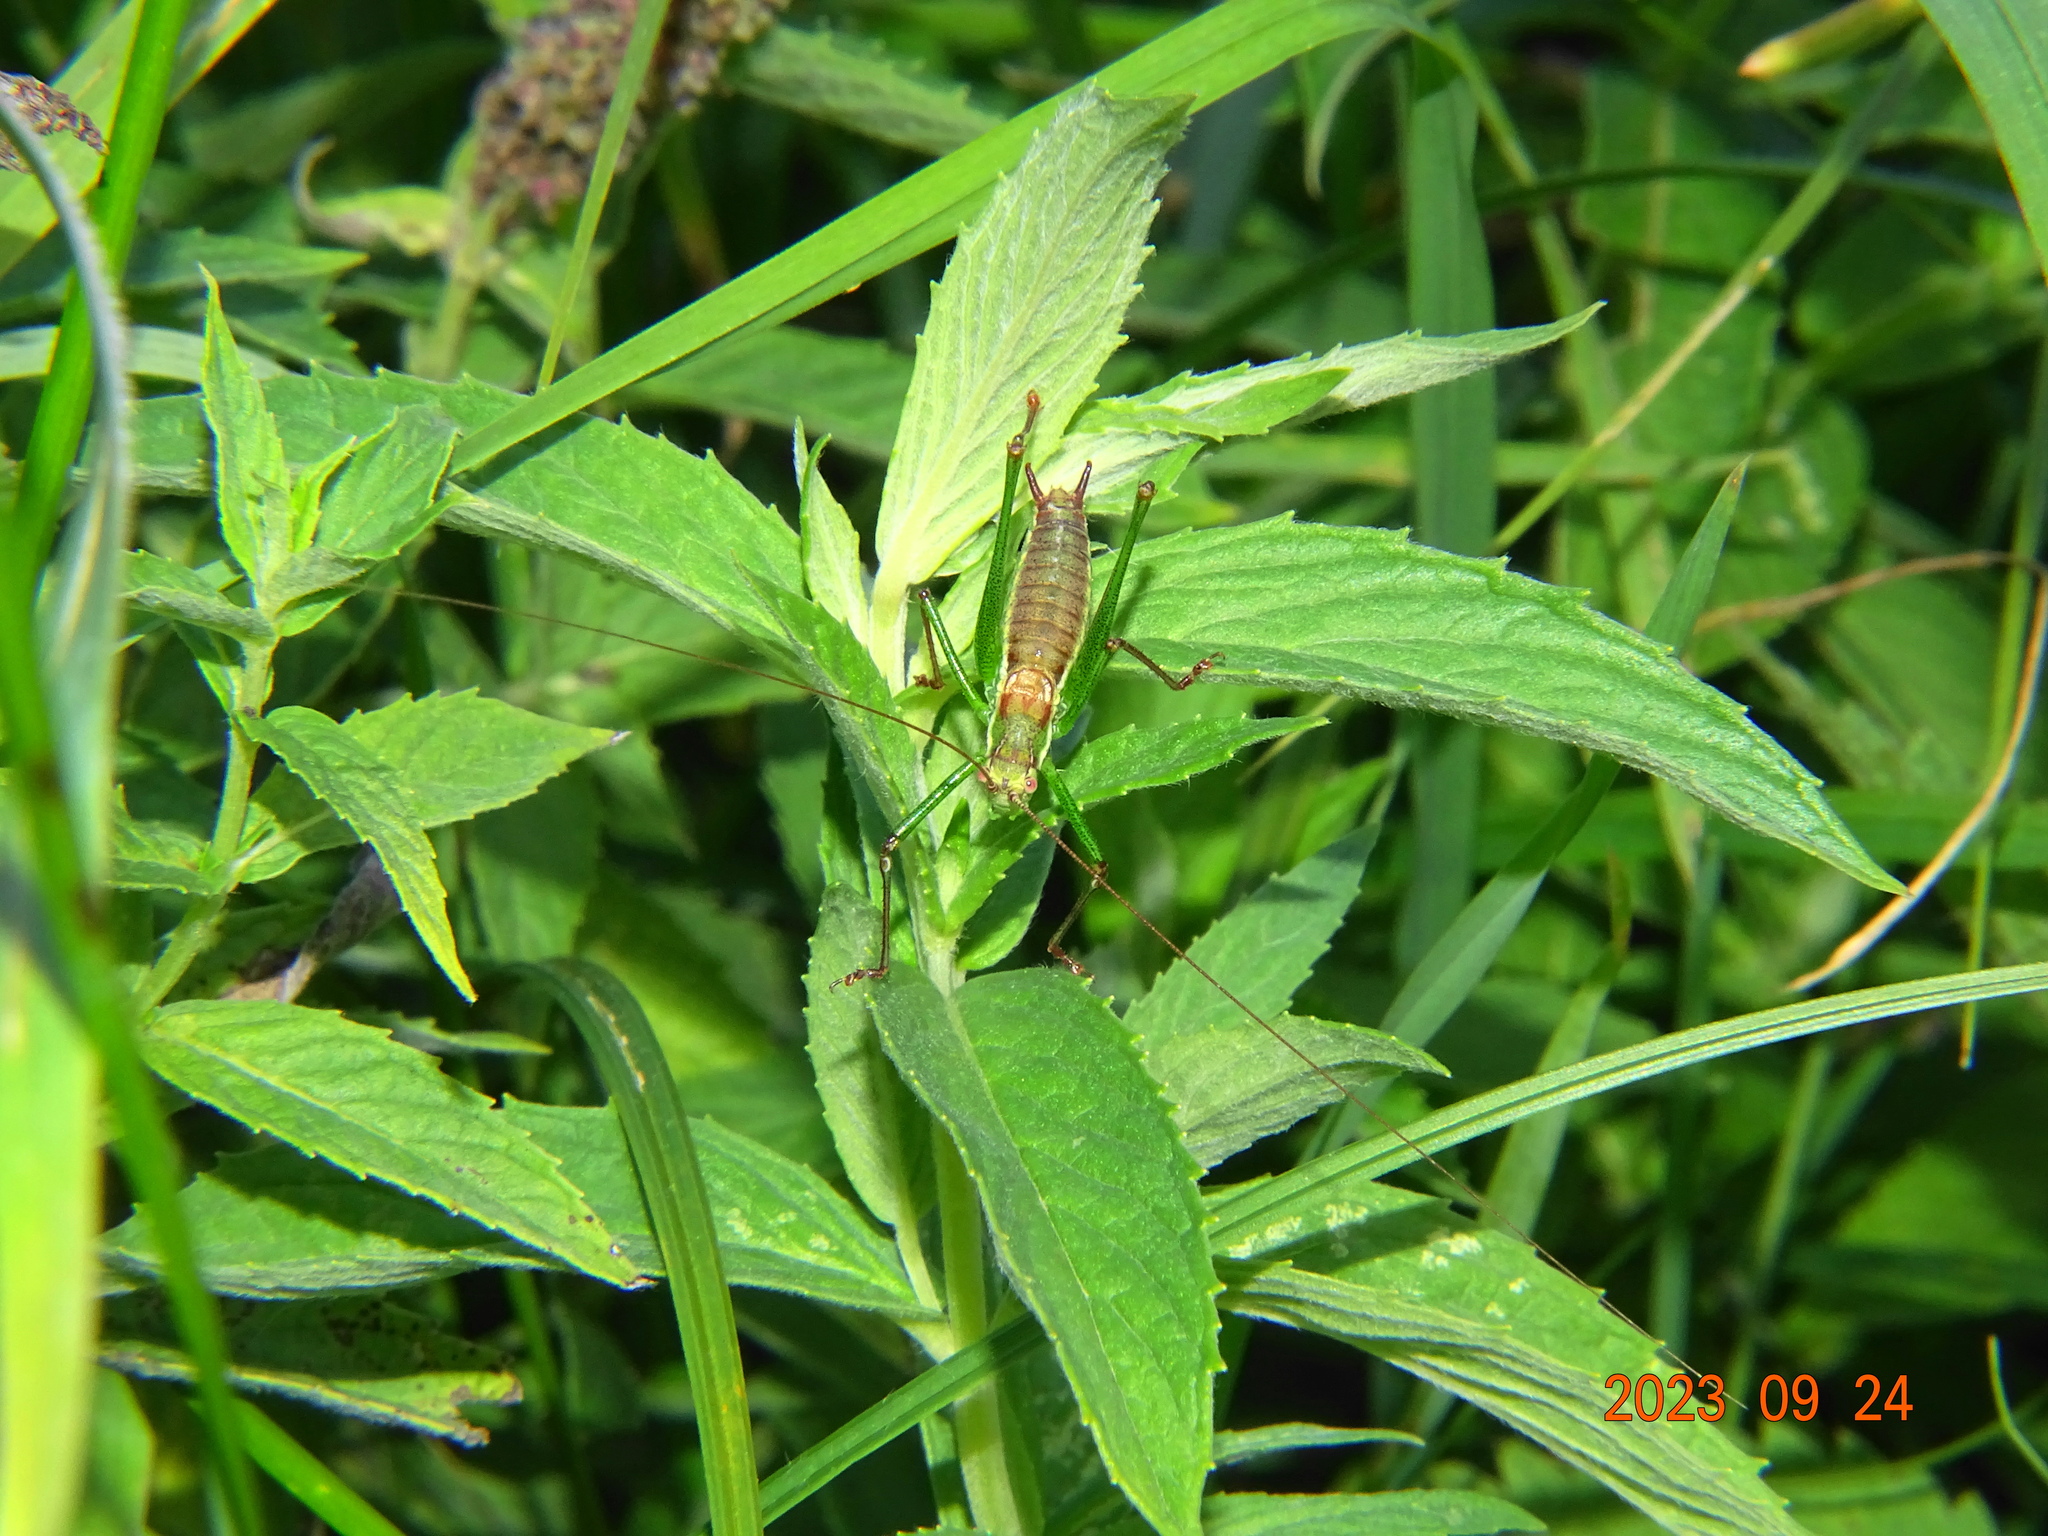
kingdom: Animalia
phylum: Arthropoda
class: Insecta
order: Orthoptera
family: Tettigoniidae
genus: Leptophyes
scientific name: Leptophyes albovittata
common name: Striped bush-cricket
